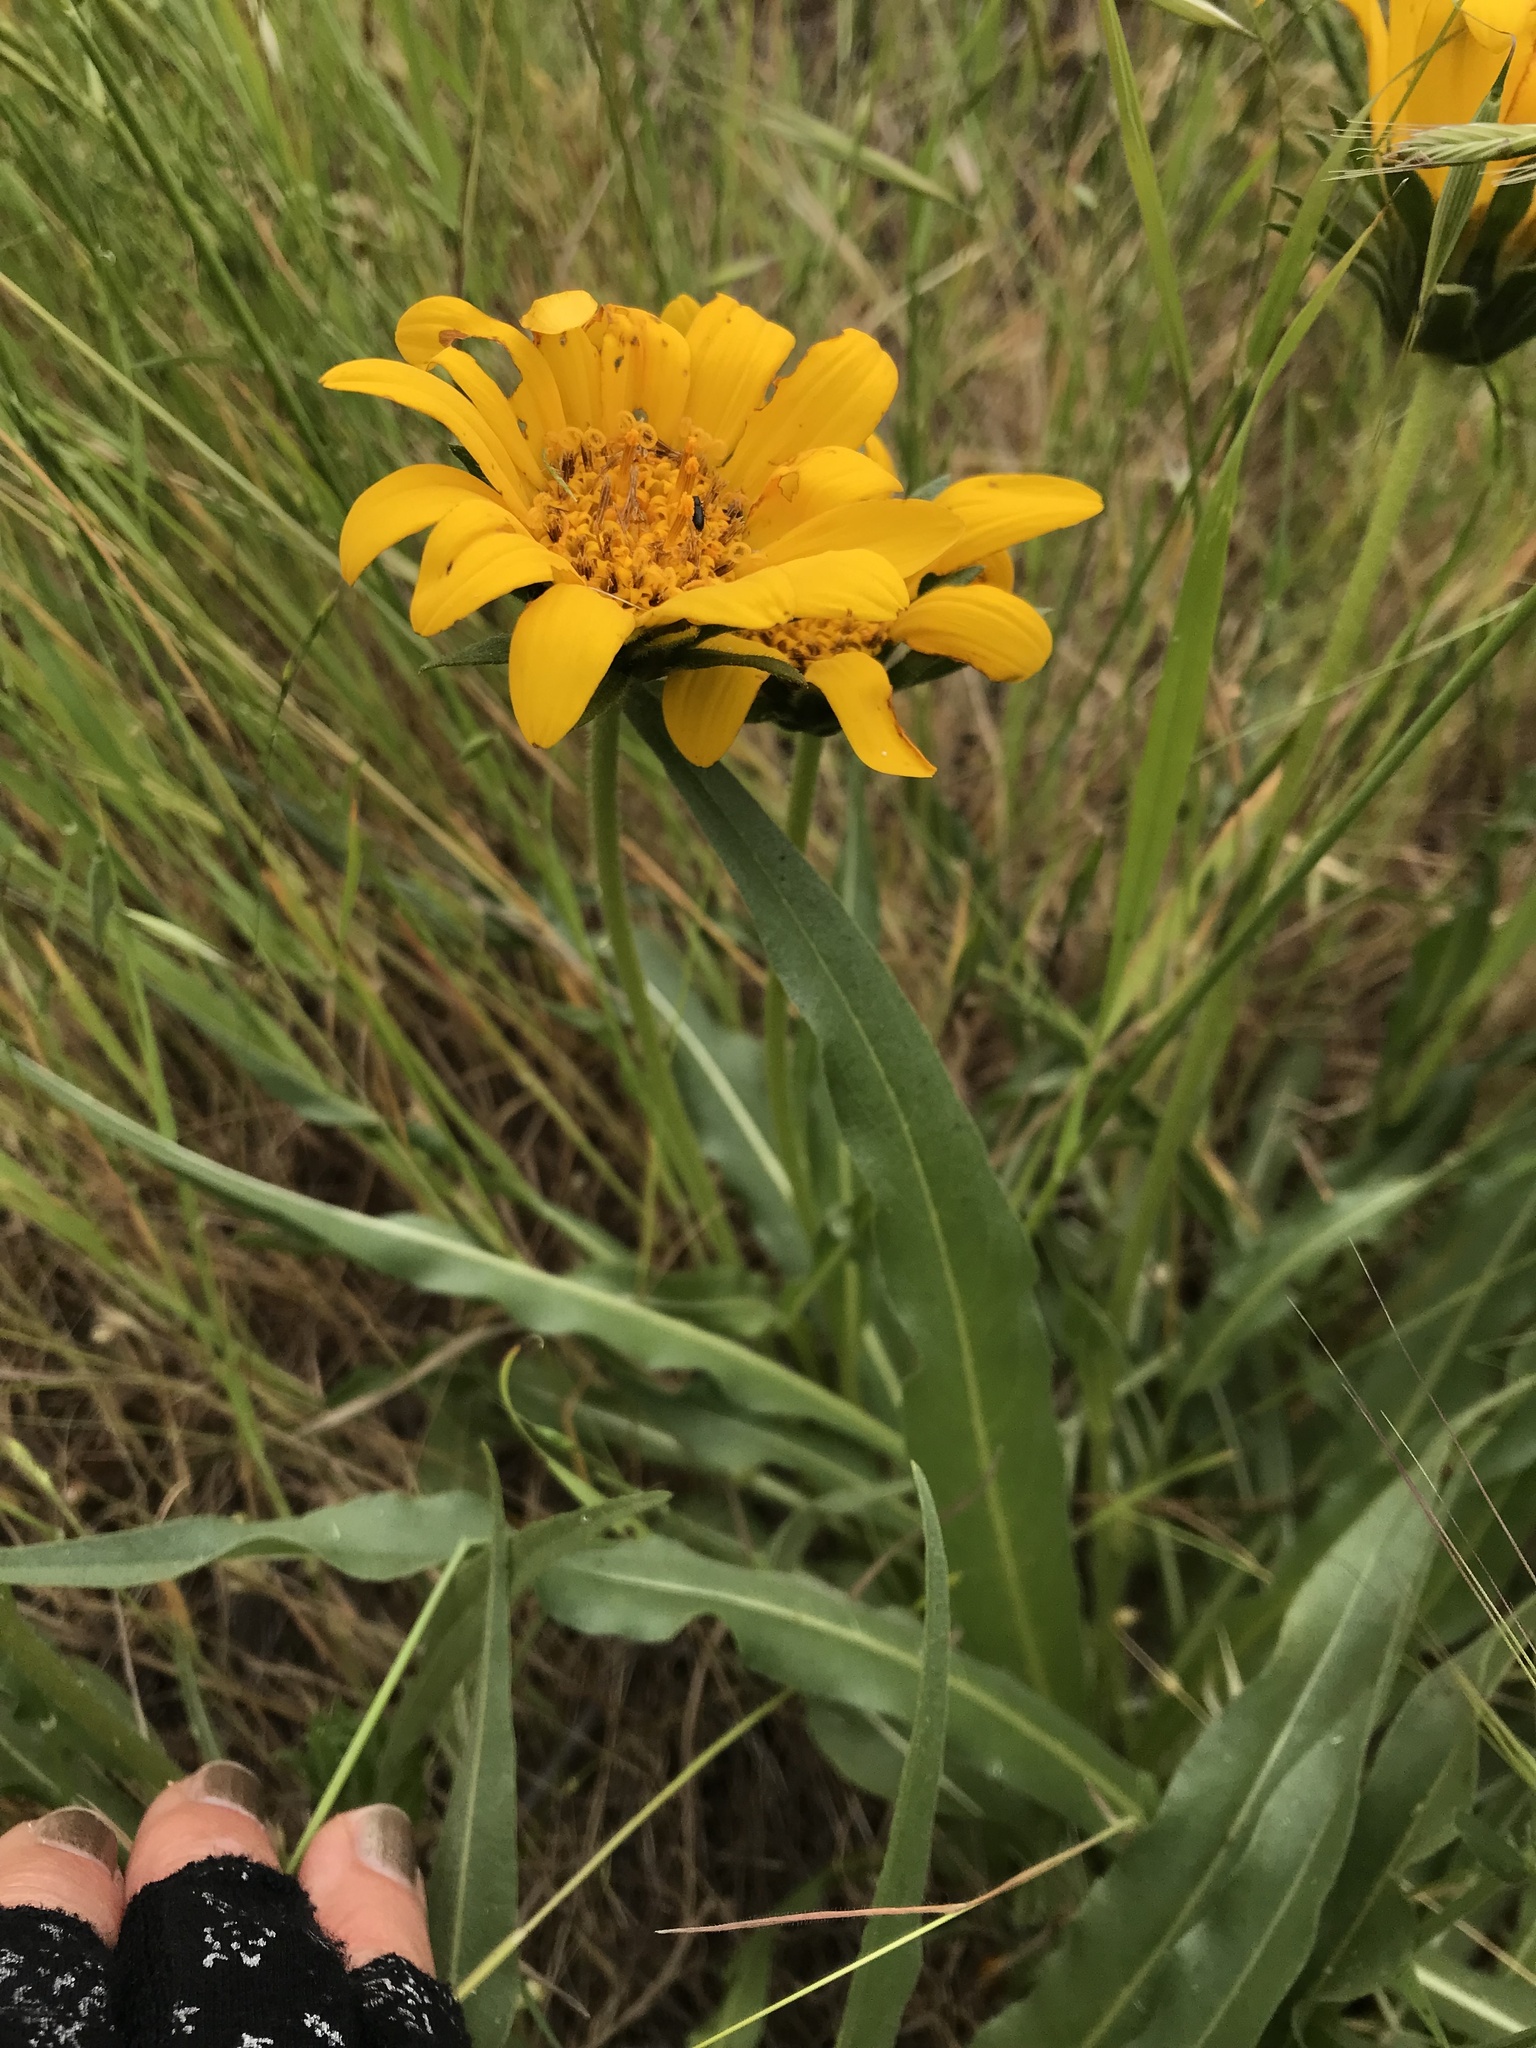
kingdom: Plantae
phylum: Tracheophyta
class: Magnoliopsida
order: Asterales
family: Asteraceae
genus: Wyethia
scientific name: Wyethia angustifolia
